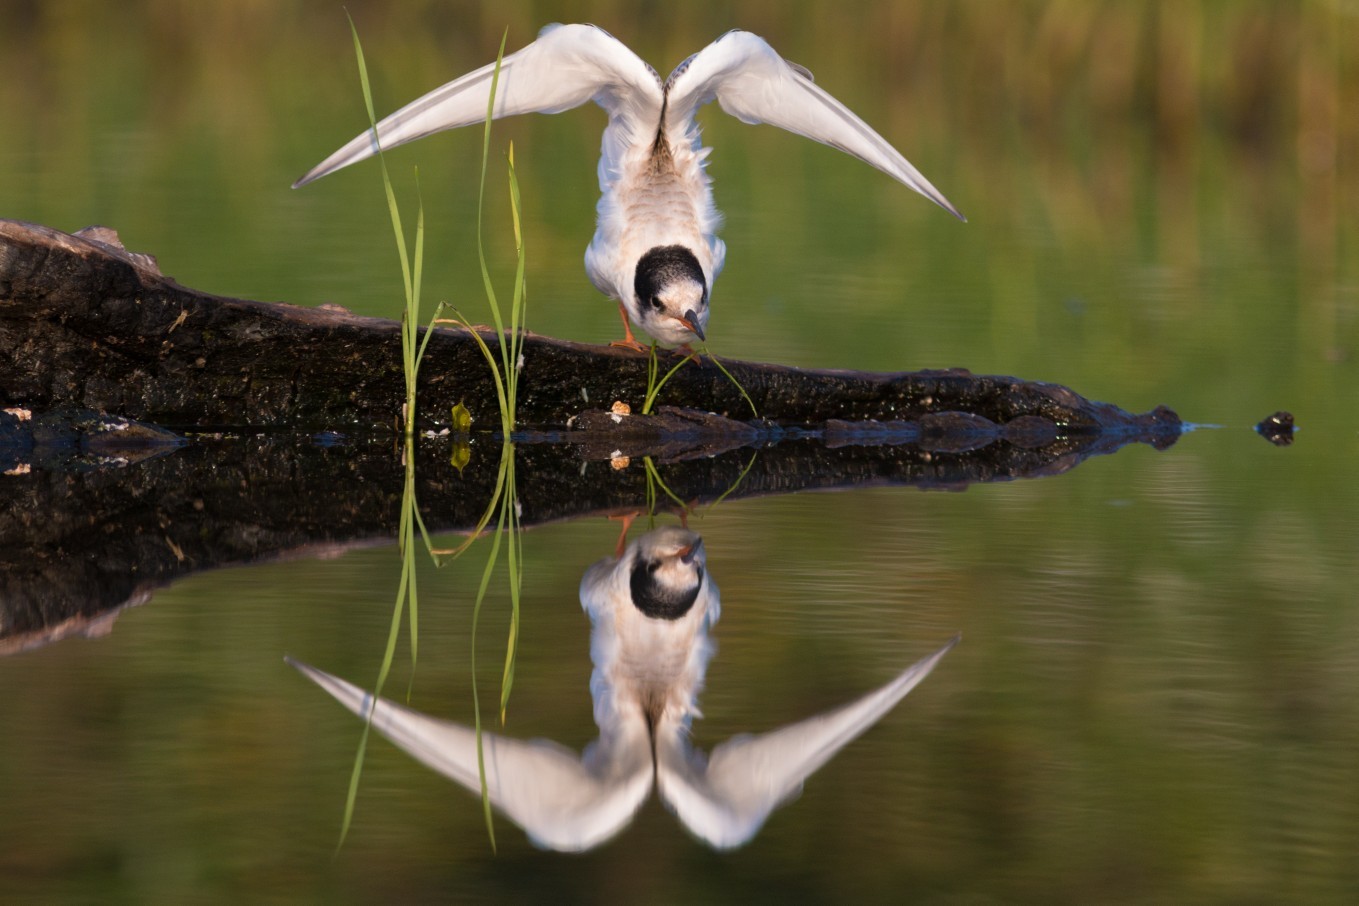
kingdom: Animalia
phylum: Chordata
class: Aves
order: Charadriiformes
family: Laridae
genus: Sterna
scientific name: Sterna hirundo
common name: Common tern
